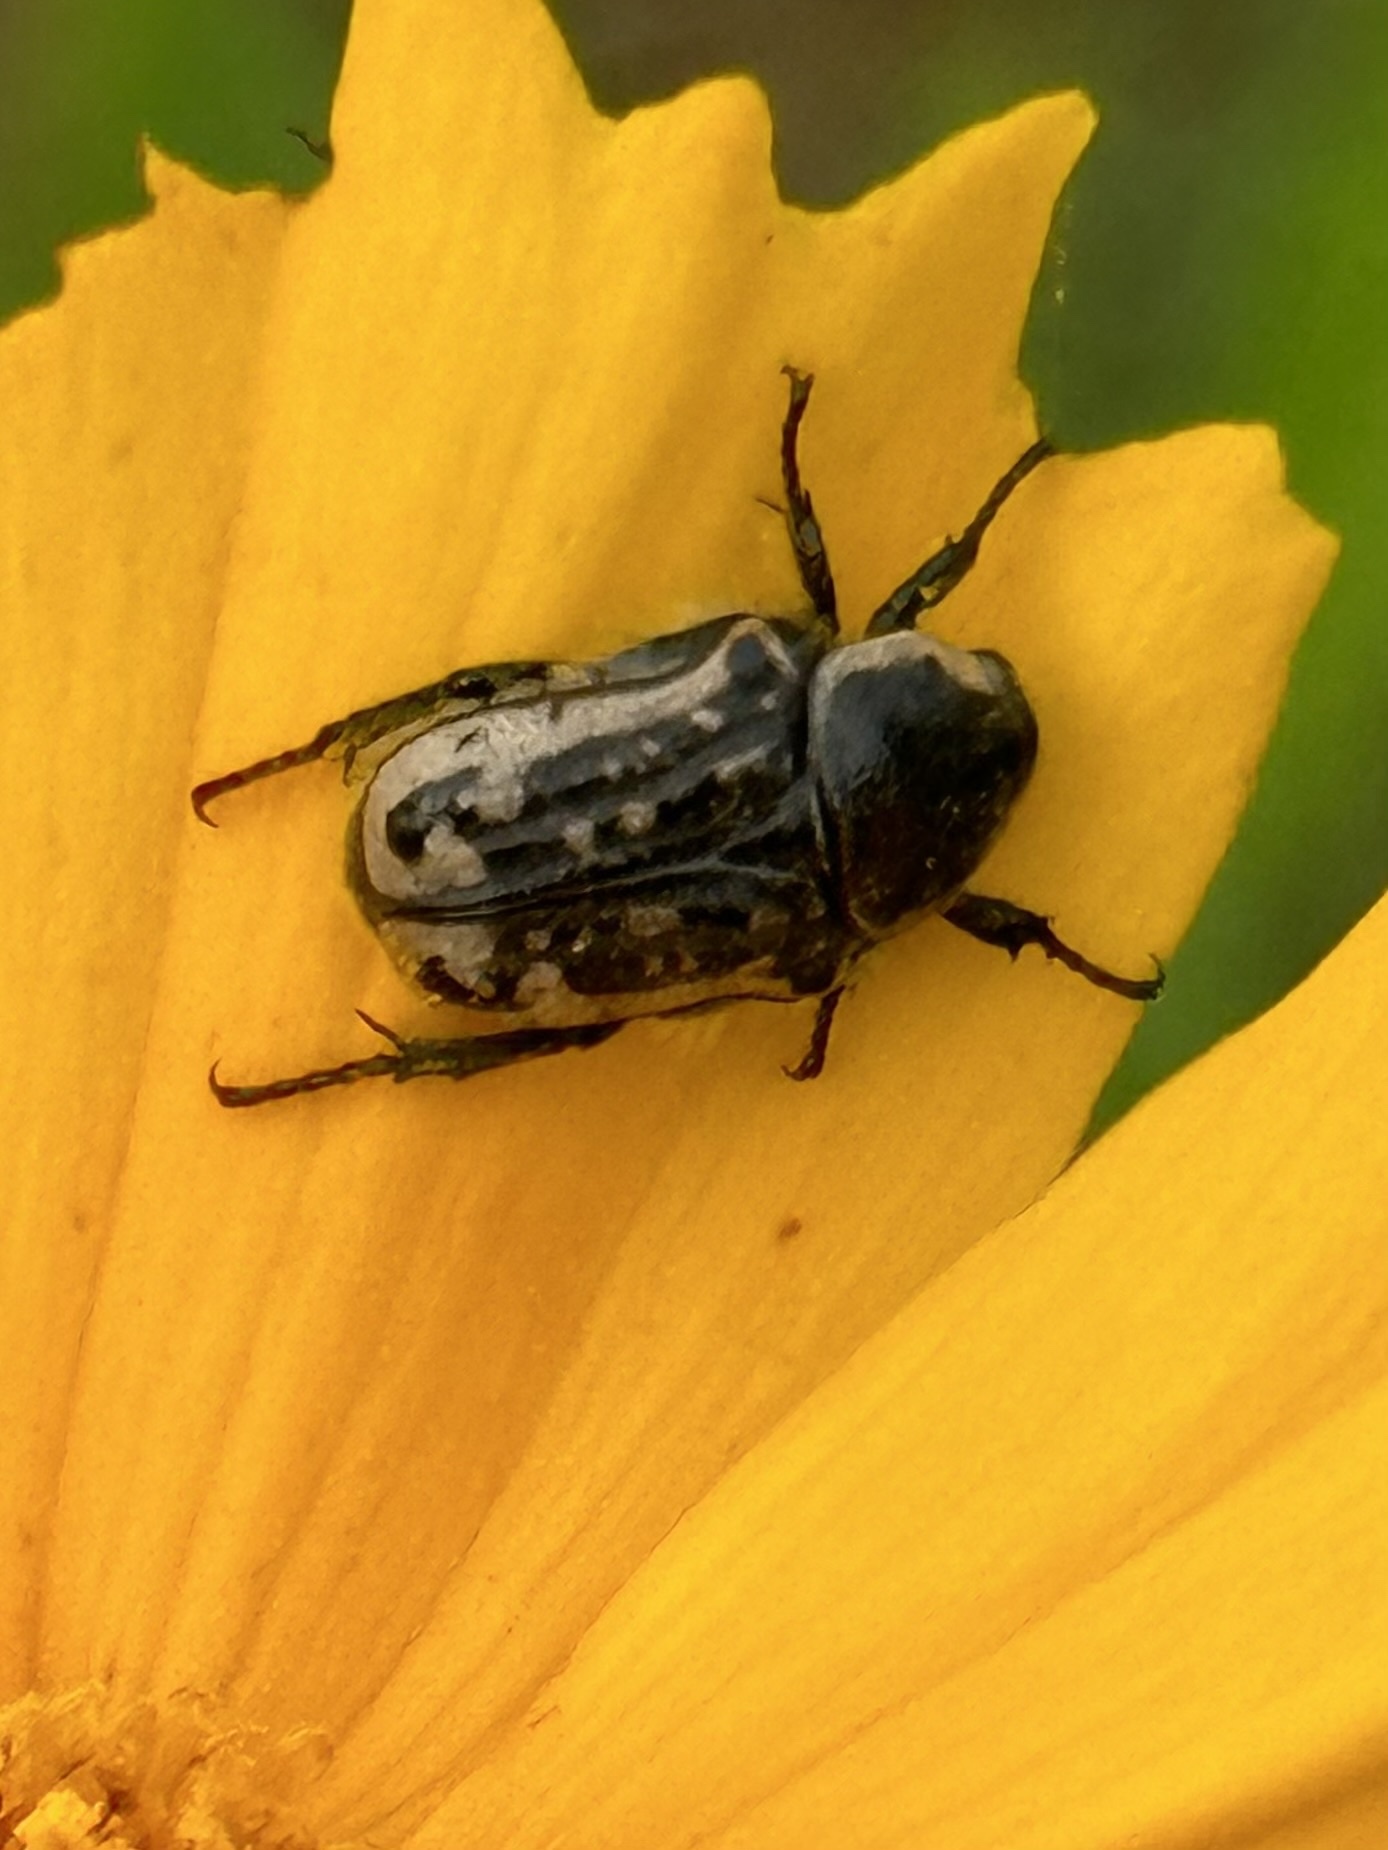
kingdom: Animalia
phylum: Arthropoda
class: Insecta
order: Coleoptera
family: Scarabaeidae
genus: Euphoria
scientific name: Euphoria kernii
